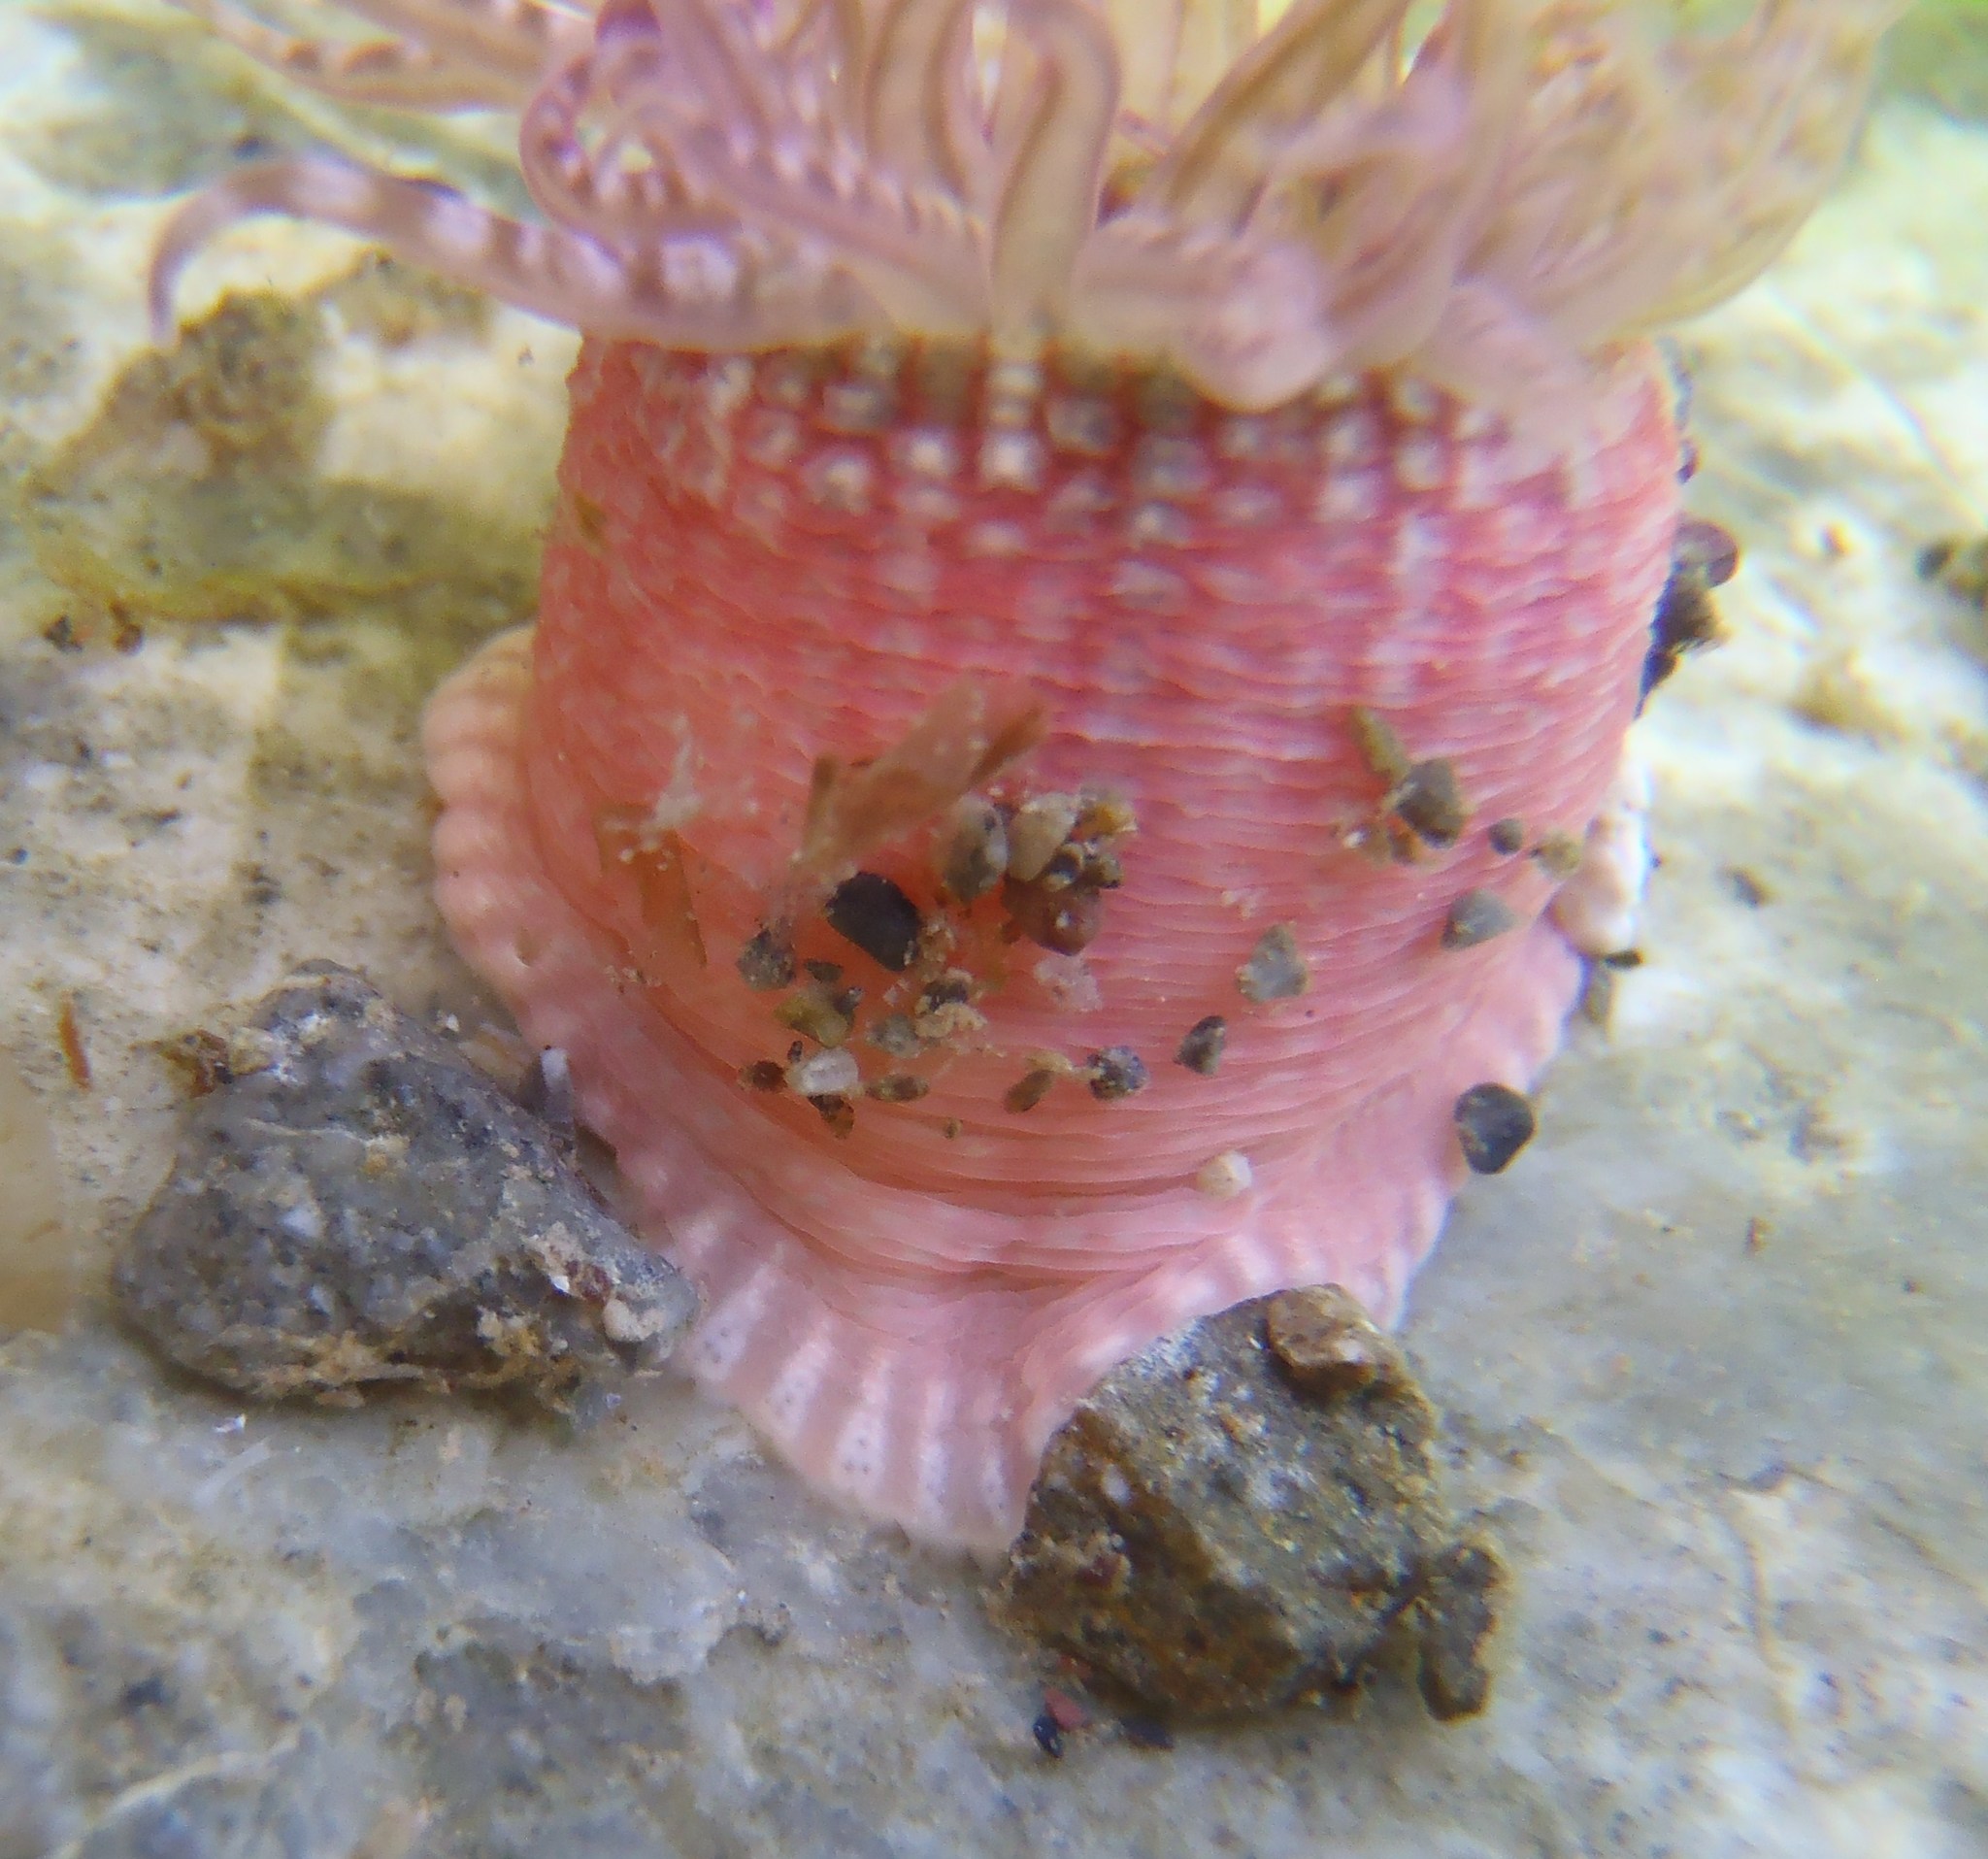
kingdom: Animalia
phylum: Cnidaria
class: Anthozoa
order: Actiniaria
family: Actiniidae
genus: Anthopleura
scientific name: Anthopleura rosea
